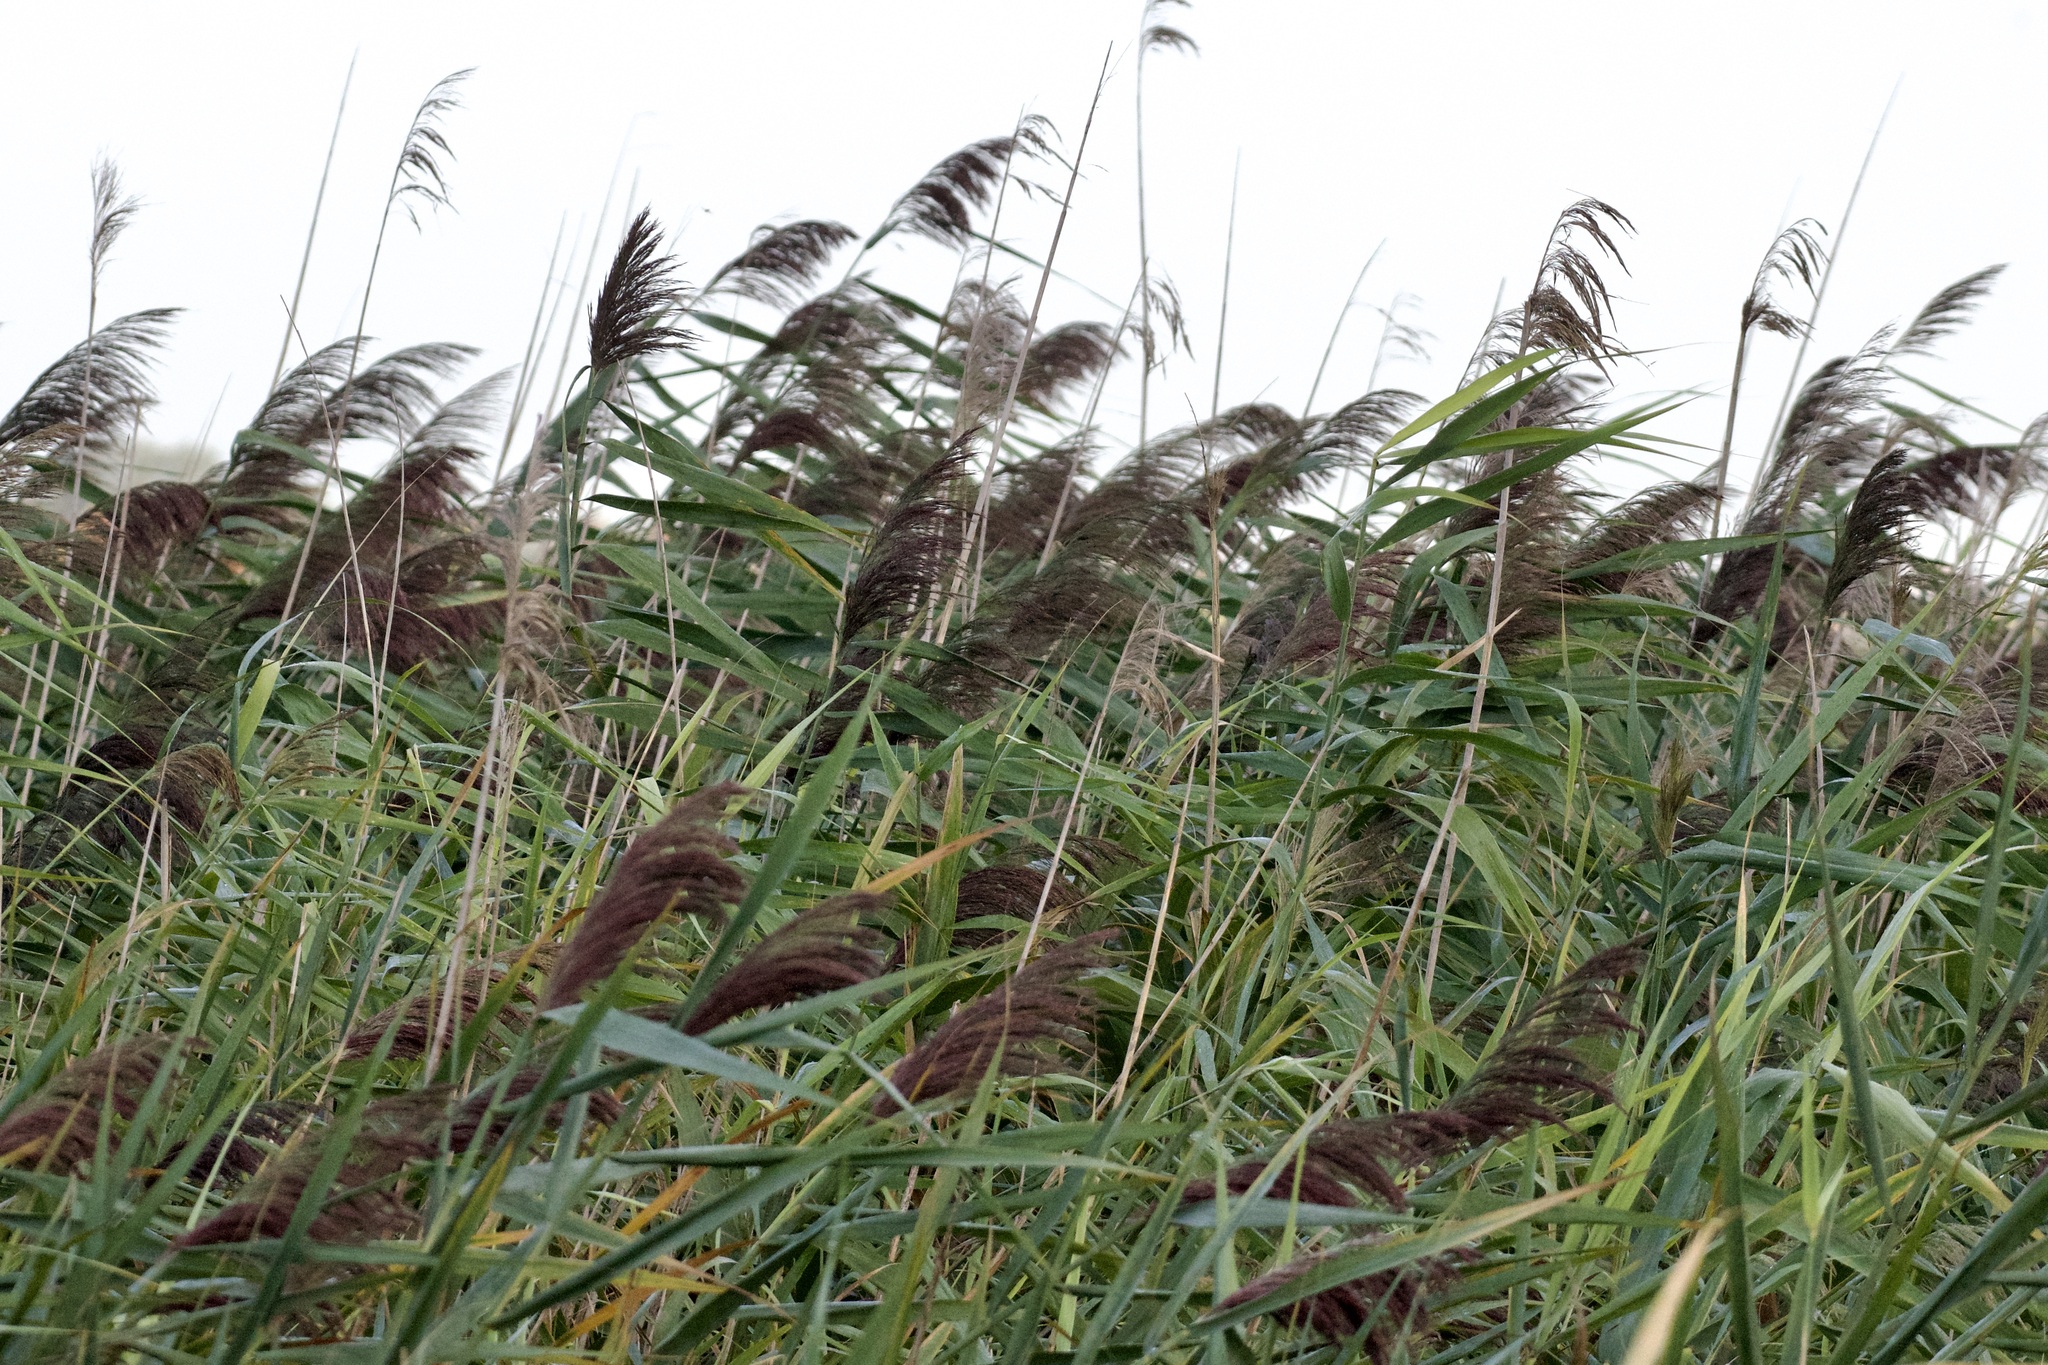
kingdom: Plantae
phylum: Tracheophyta
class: Liliopsida
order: Poales
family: Poaceae
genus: Phragmites
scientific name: Phragmites australis
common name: Common reed
